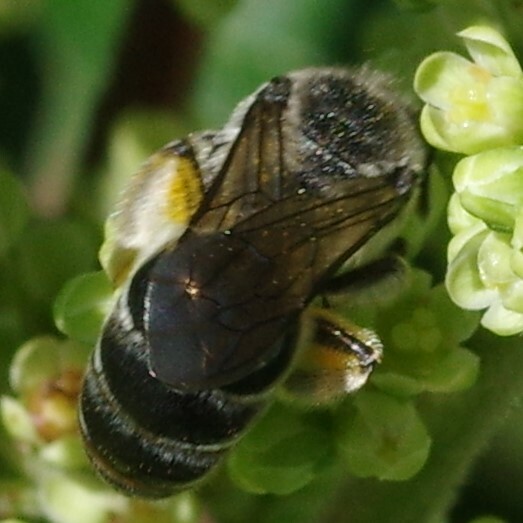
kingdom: Animalia
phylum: Arthropoda
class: Insecta
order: Hymenoptera
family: Colletidae
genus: Colletes
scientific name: Colletes nudus
